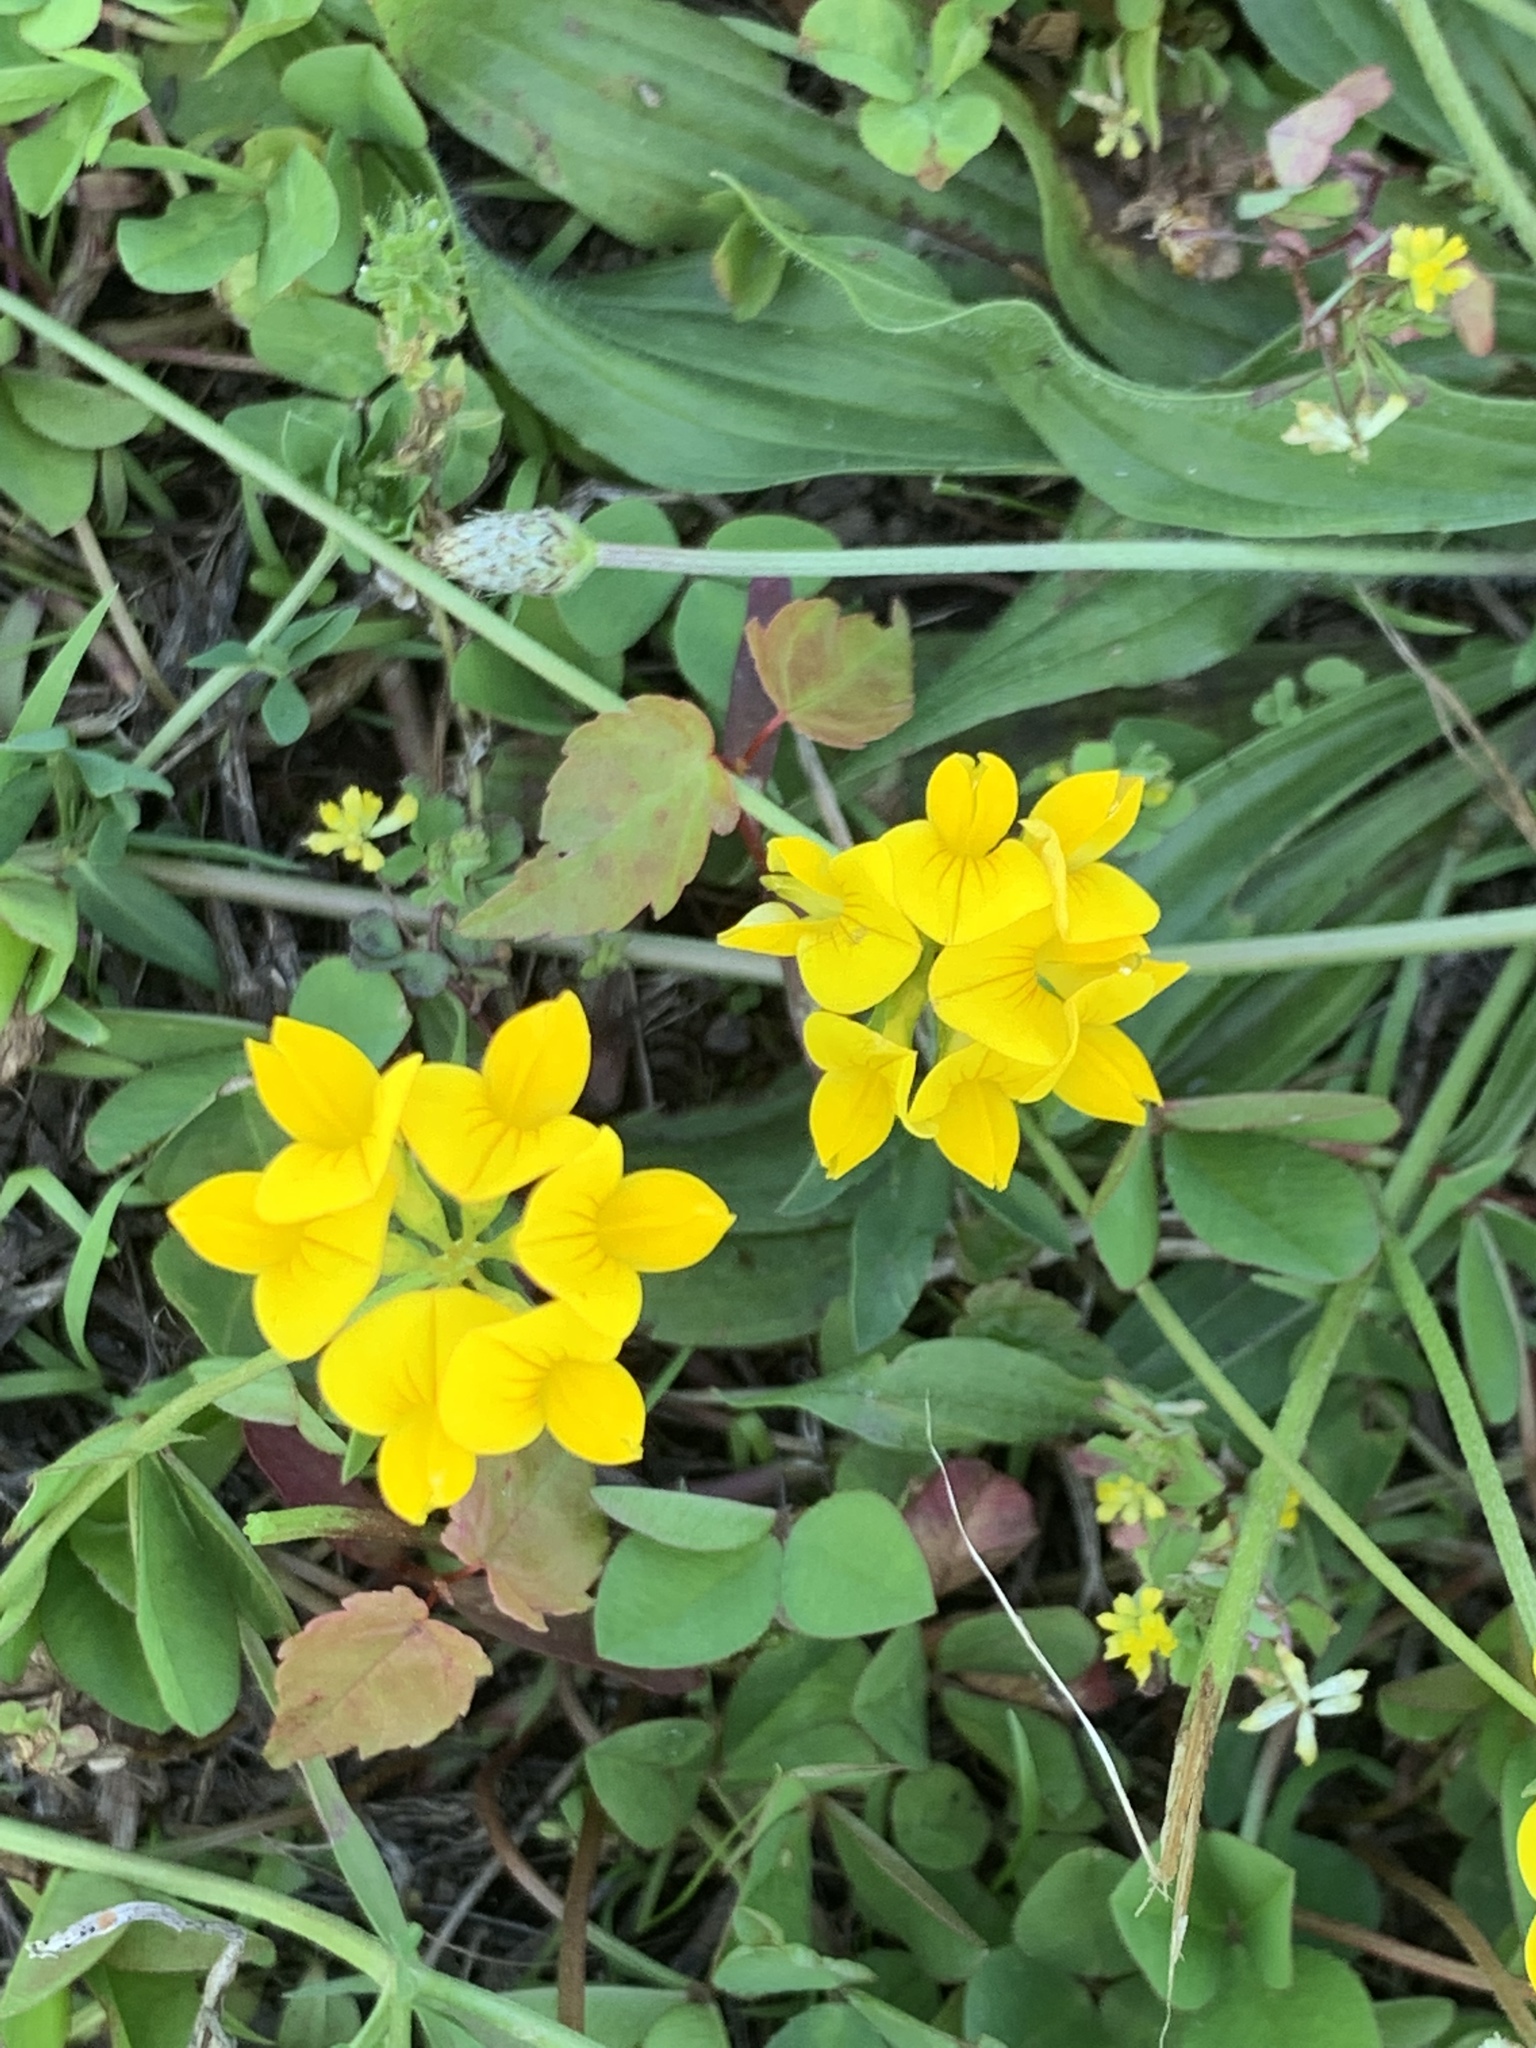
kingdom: Plantae
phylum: Tracheophyta
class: Magnoliopsida
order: Fabales
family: Fabaceae
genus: Lotus
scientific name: Lotus corniculatus
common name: Common bird's-foot-trefoil
